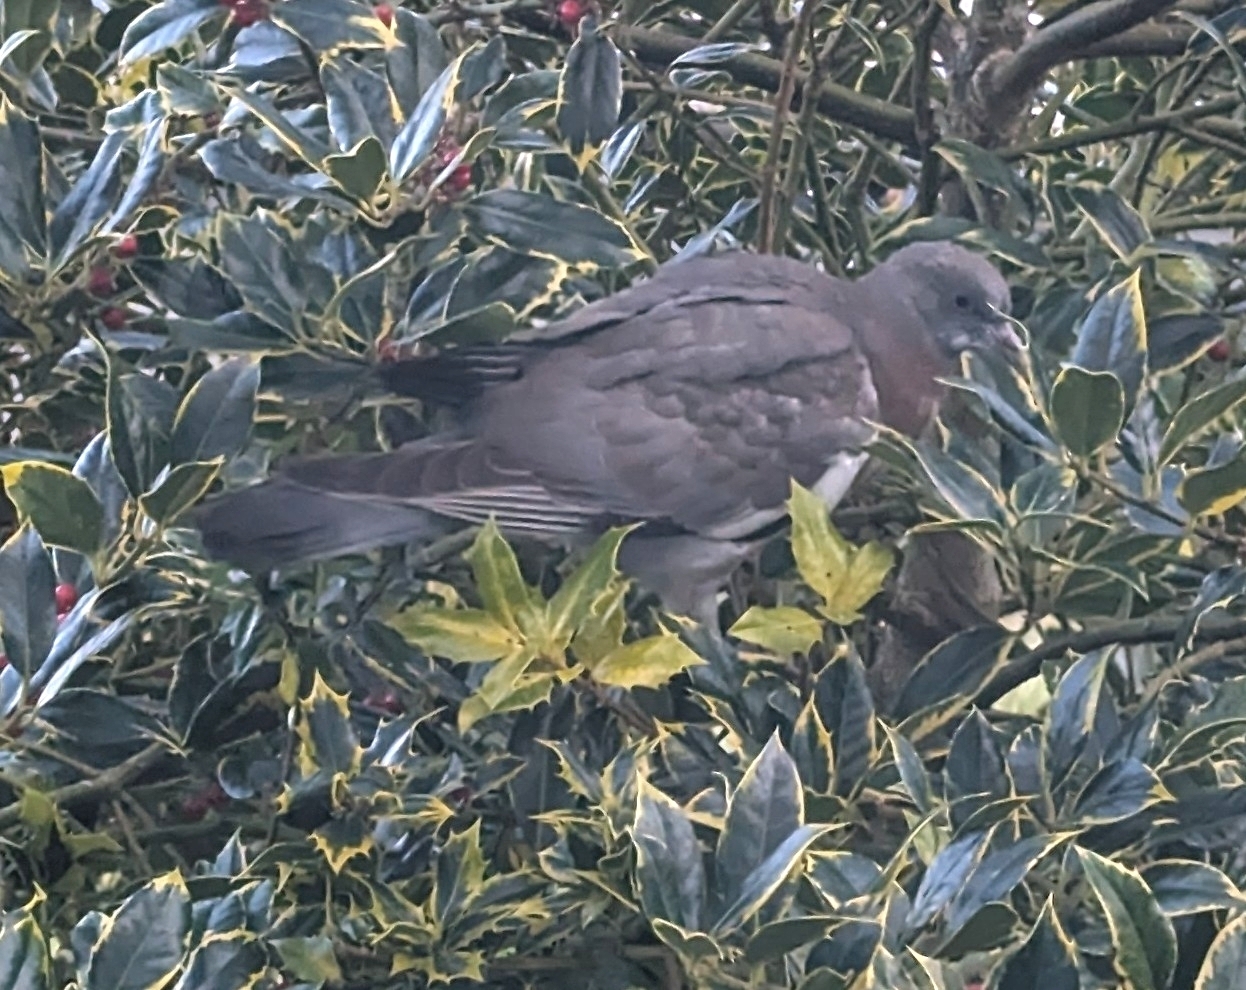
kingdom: Animalia
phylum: Chordata
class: Aves
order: Columbiformes
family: Columbidae
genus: Columba
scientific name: Columba palumbus
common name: Common wood pigeon
